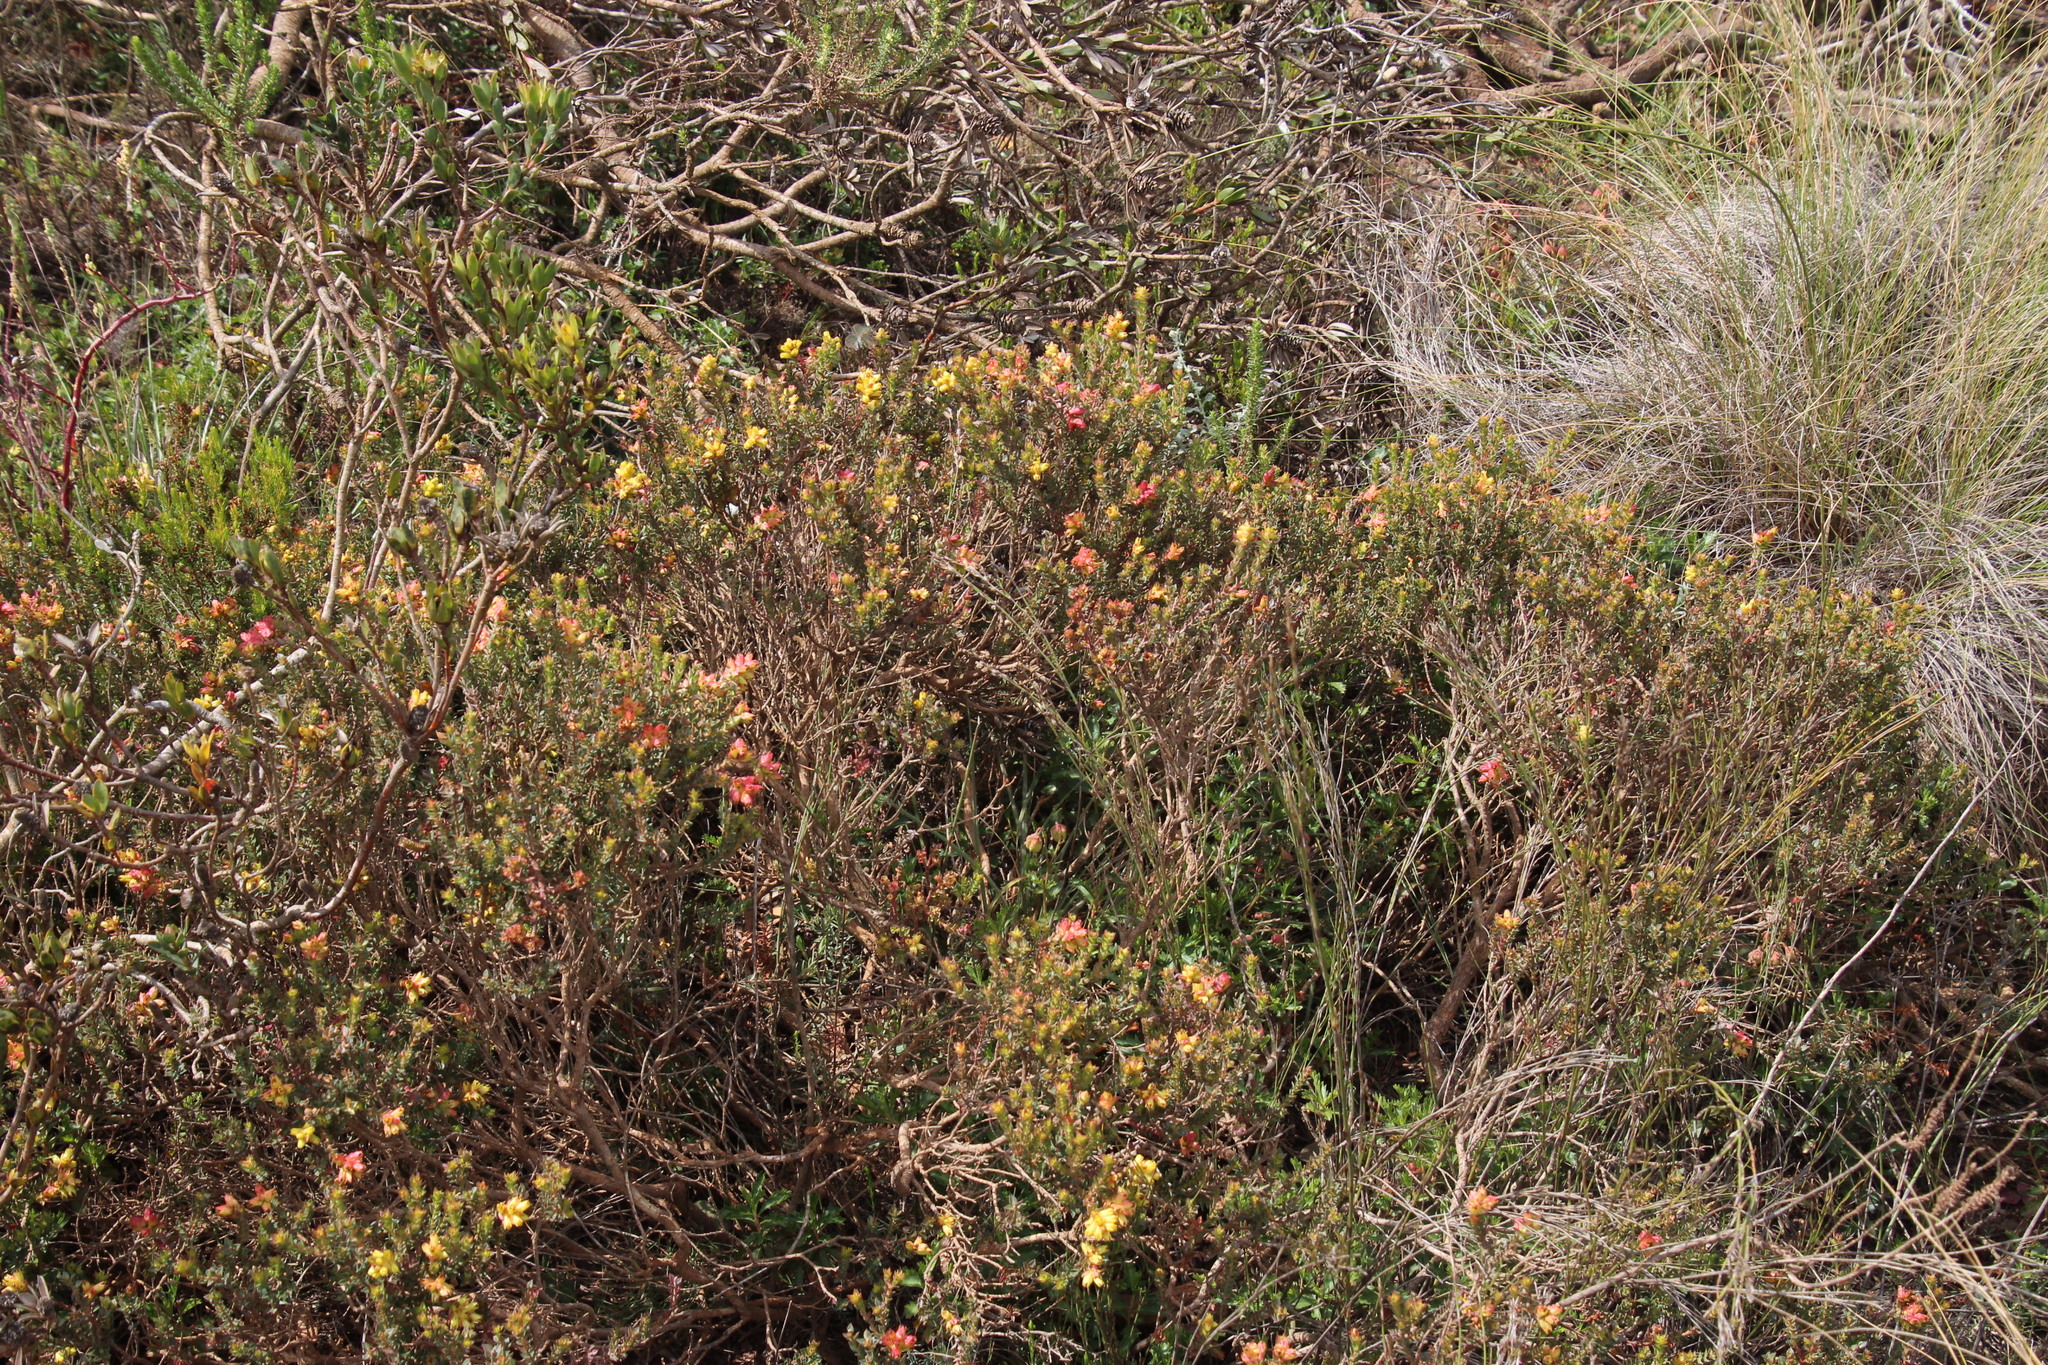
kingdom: Plantae
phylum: Tracheophyta
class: Magnoliopsida
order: Myrtales
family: Penaeaceae
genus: Penaea
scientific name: Penaea mucronata
